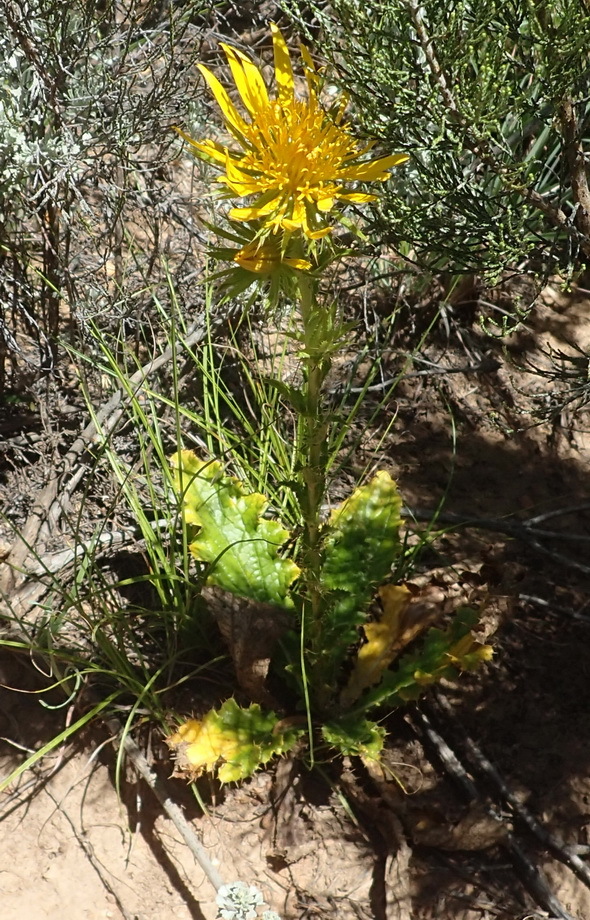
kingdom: Plantae
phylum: Tracheophyta
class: Magnoliopsida
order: Asterales
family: Asteraceae
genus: Berkheya
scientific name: Berkheya carlinoides
